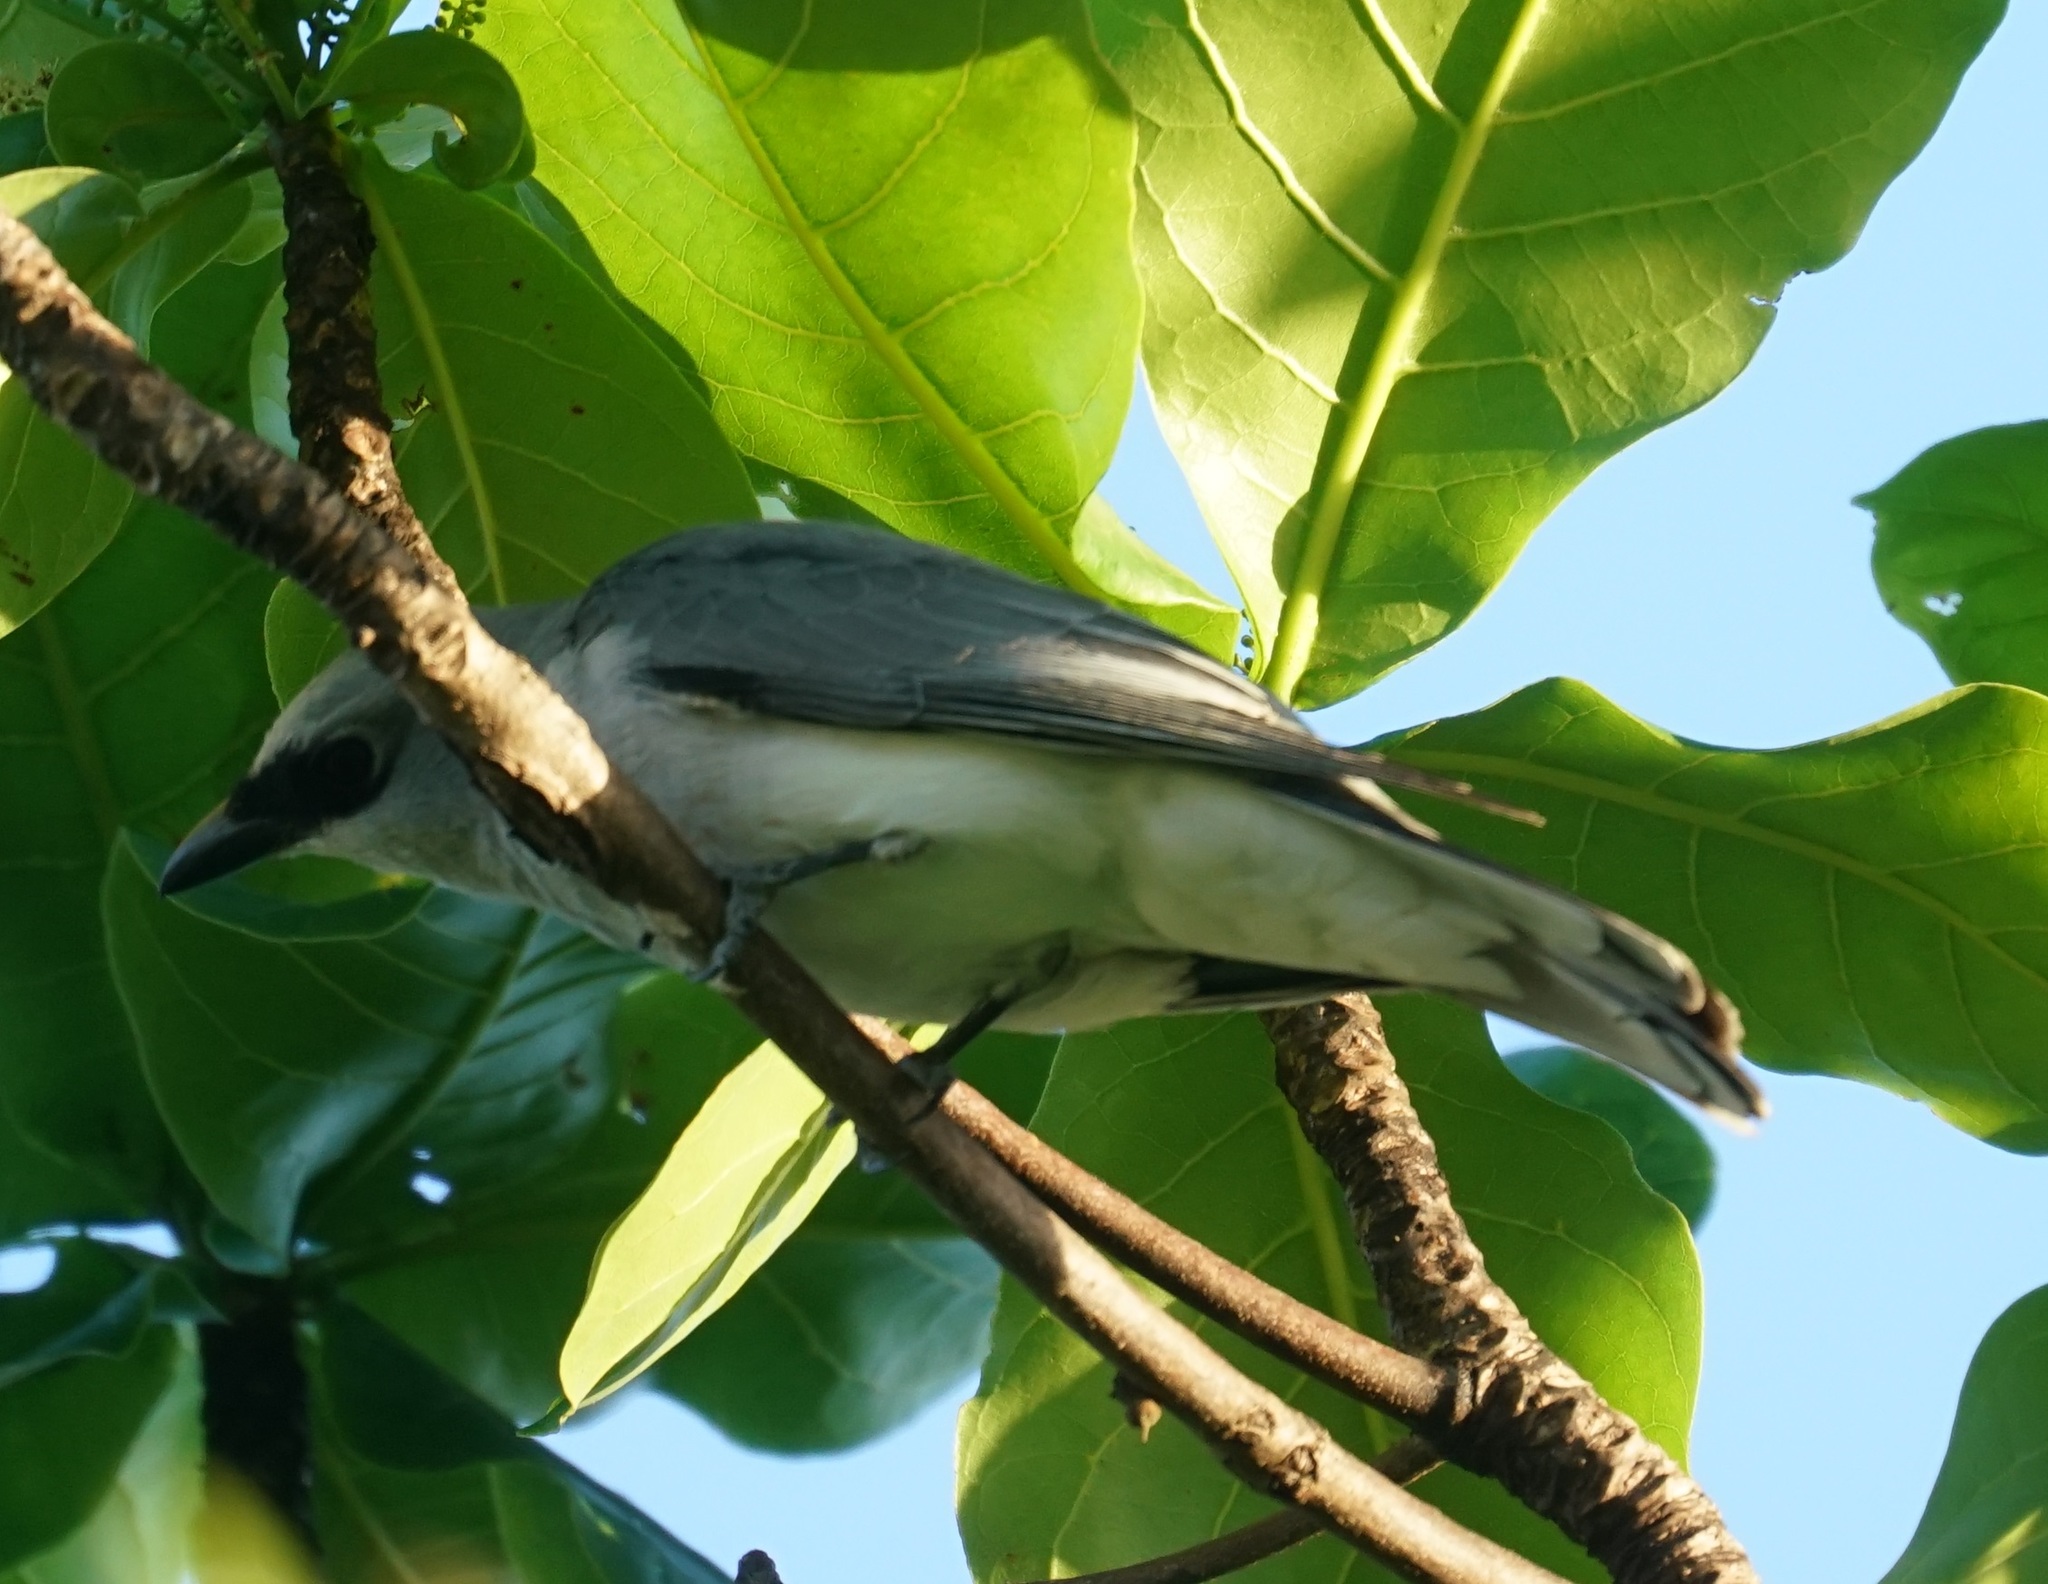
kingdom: Animalia
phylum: Chordata
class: Aves
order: Passeriformes
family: Campephagidae
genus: Coracina
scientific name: Coracina papuensis
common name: White-bellied cuckooshrike
